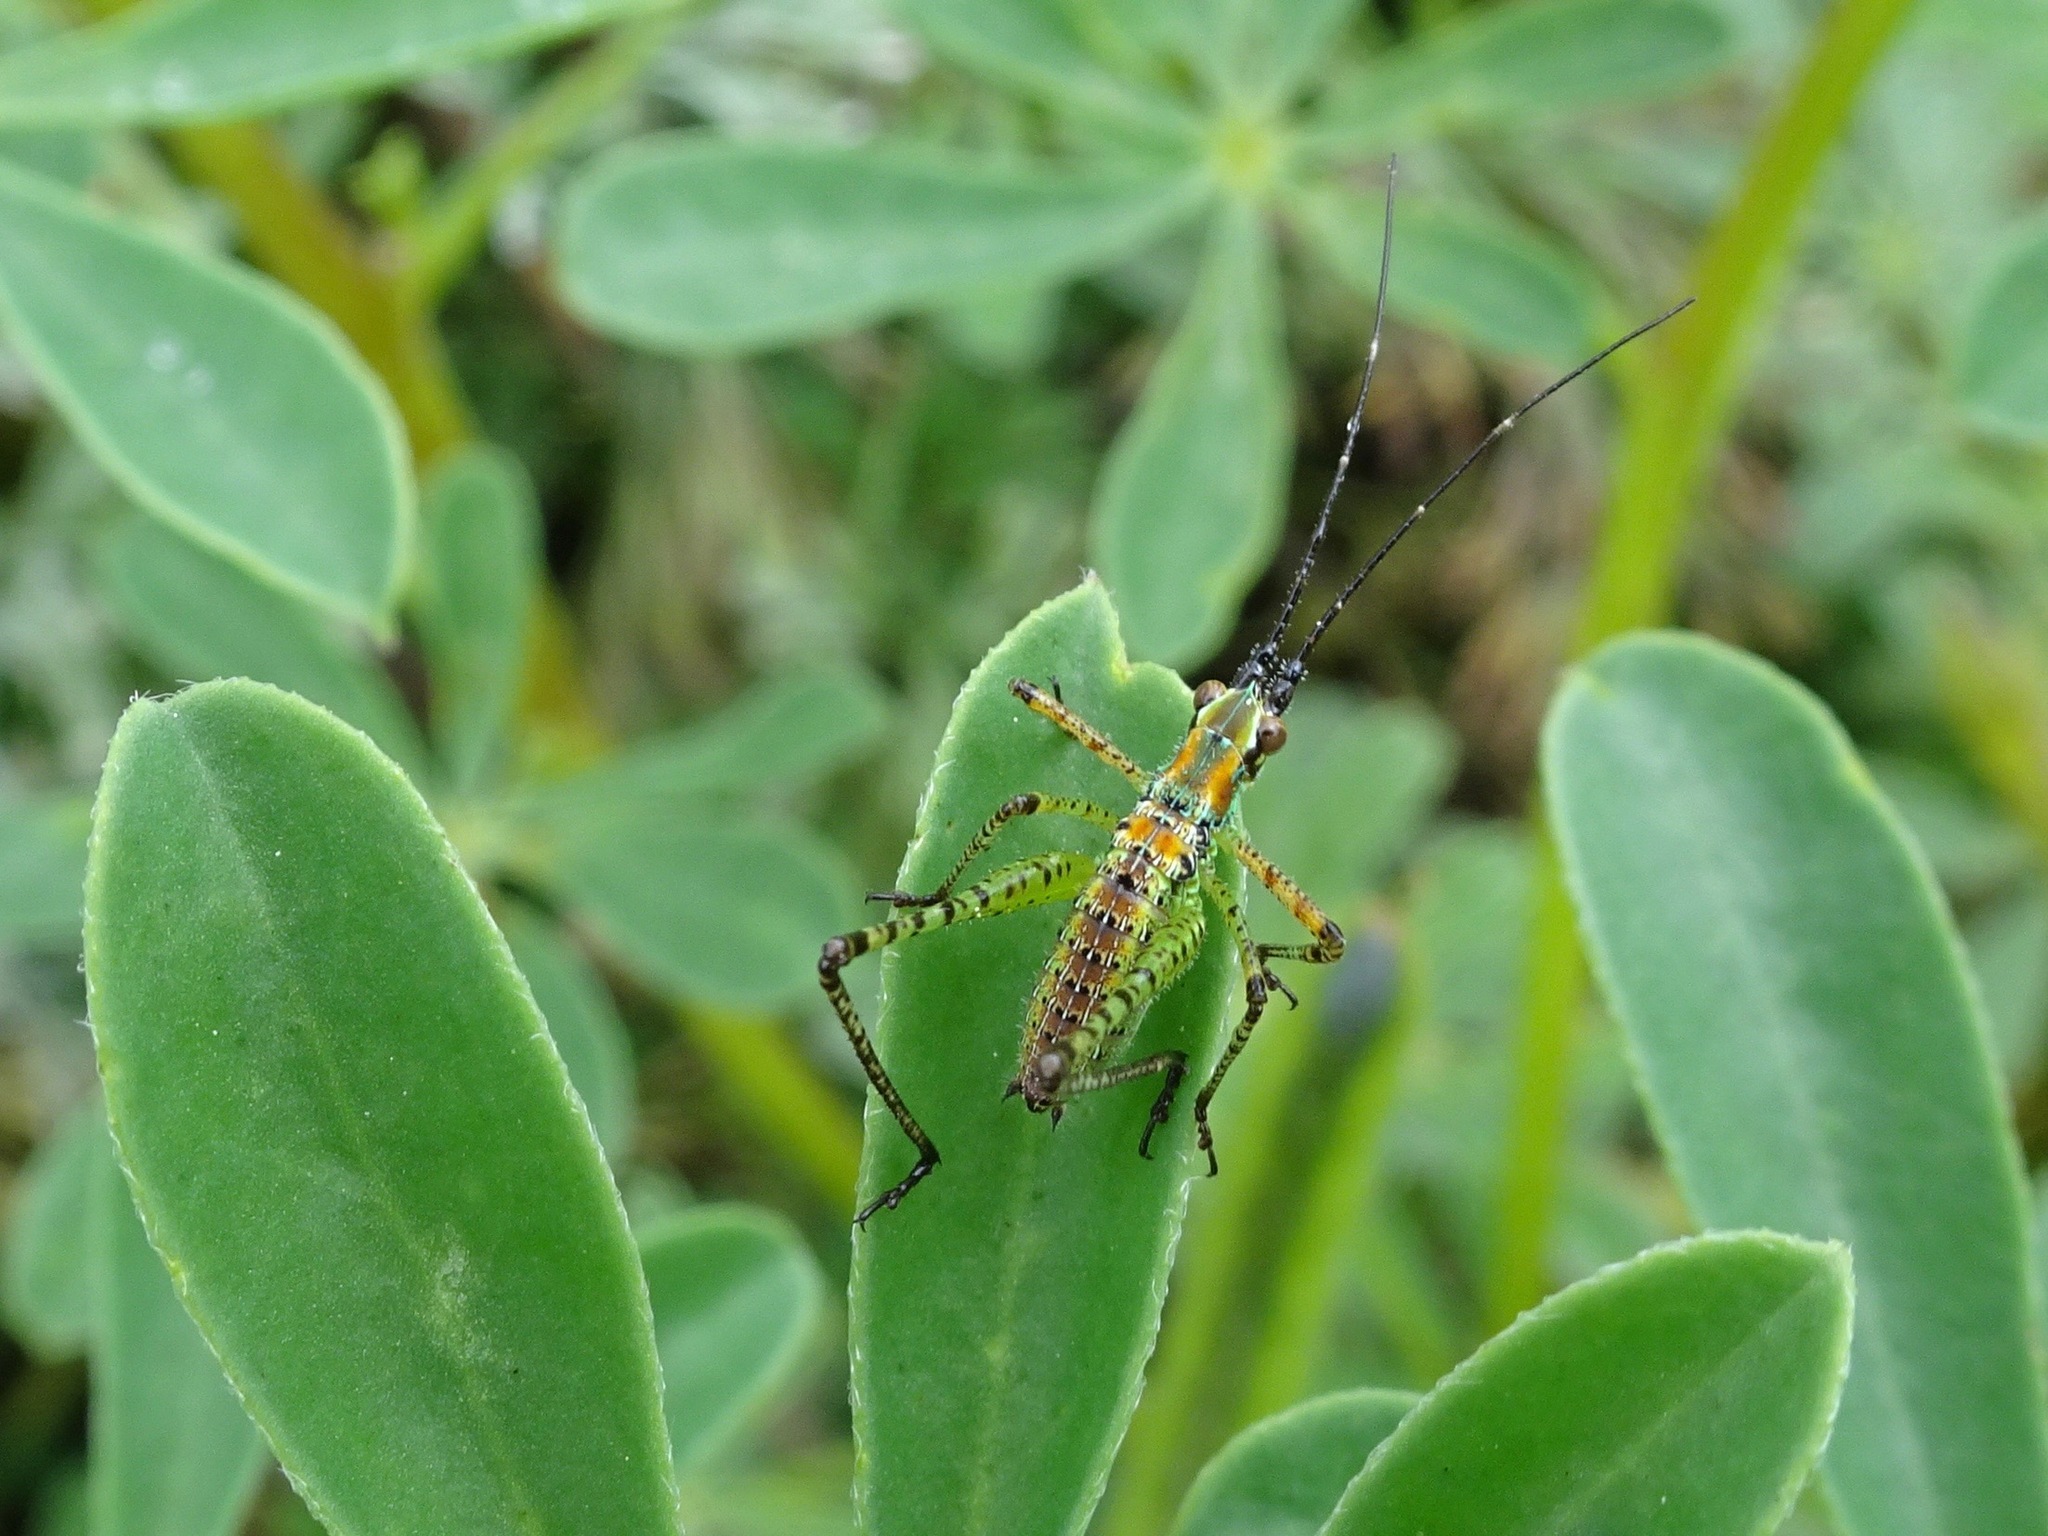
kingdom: Animalia
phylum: Arthropoda
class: Insecta
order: Orthoptera
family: Tettigoniidae
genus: Scudderia
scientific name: Scudderia mexicana
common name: Mexican bush katydid
